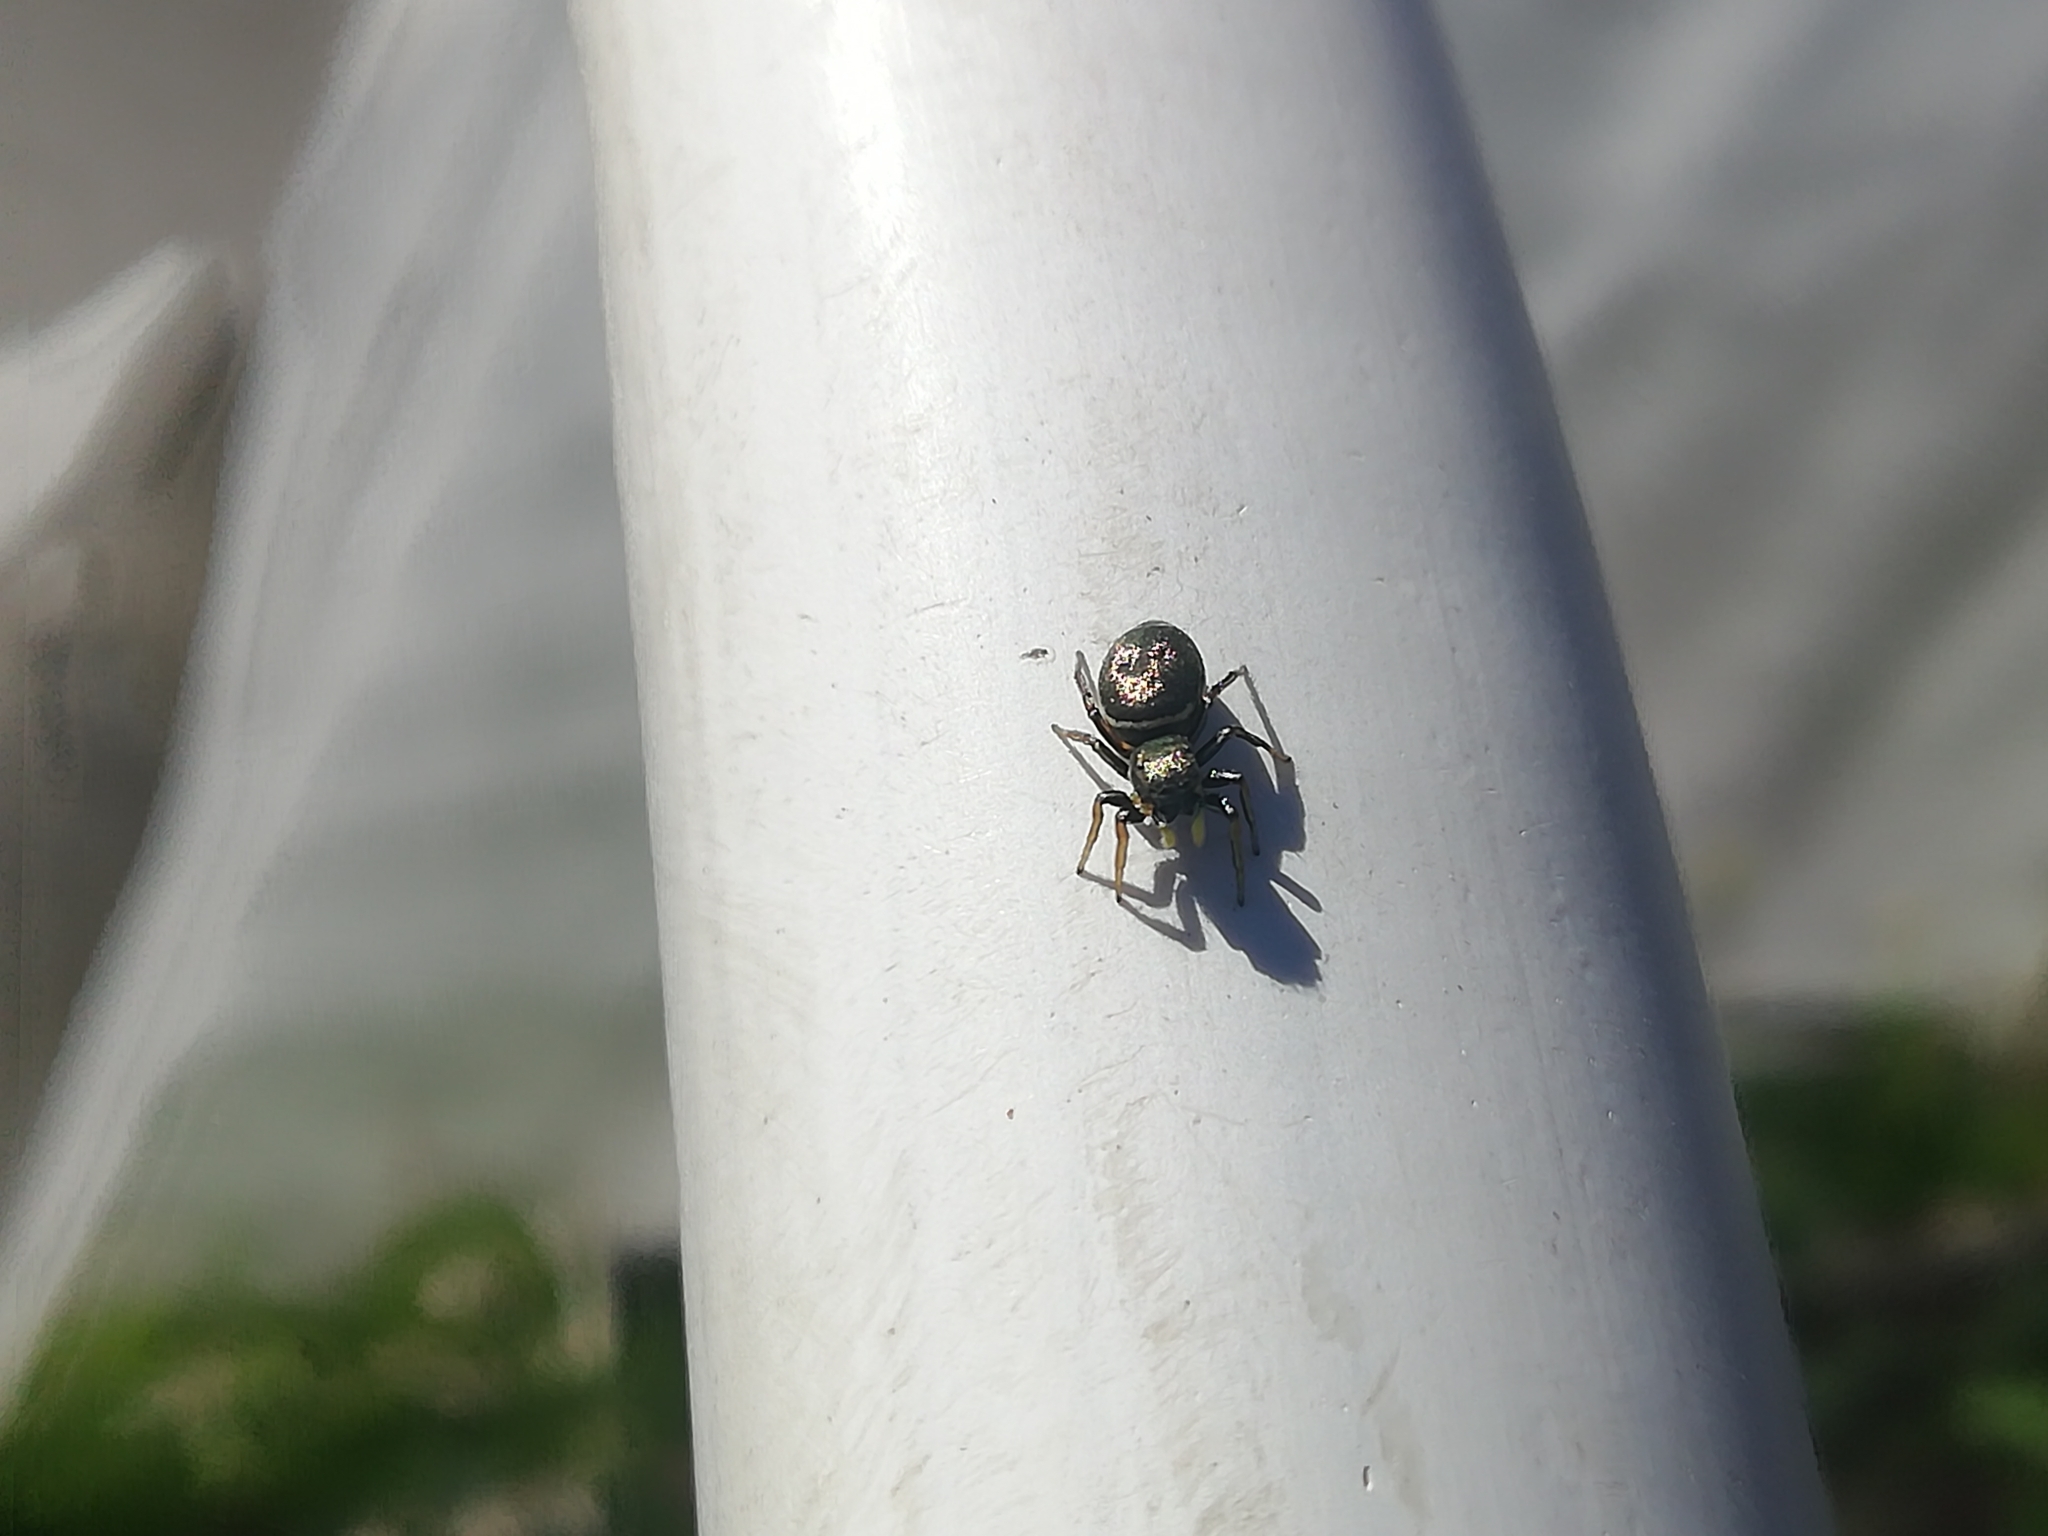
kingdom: Animalia
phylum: Arthropoda
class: Arachnida
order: Araneae
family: Salticidae
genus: Heliophanus
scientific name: Heliophanus auratus
